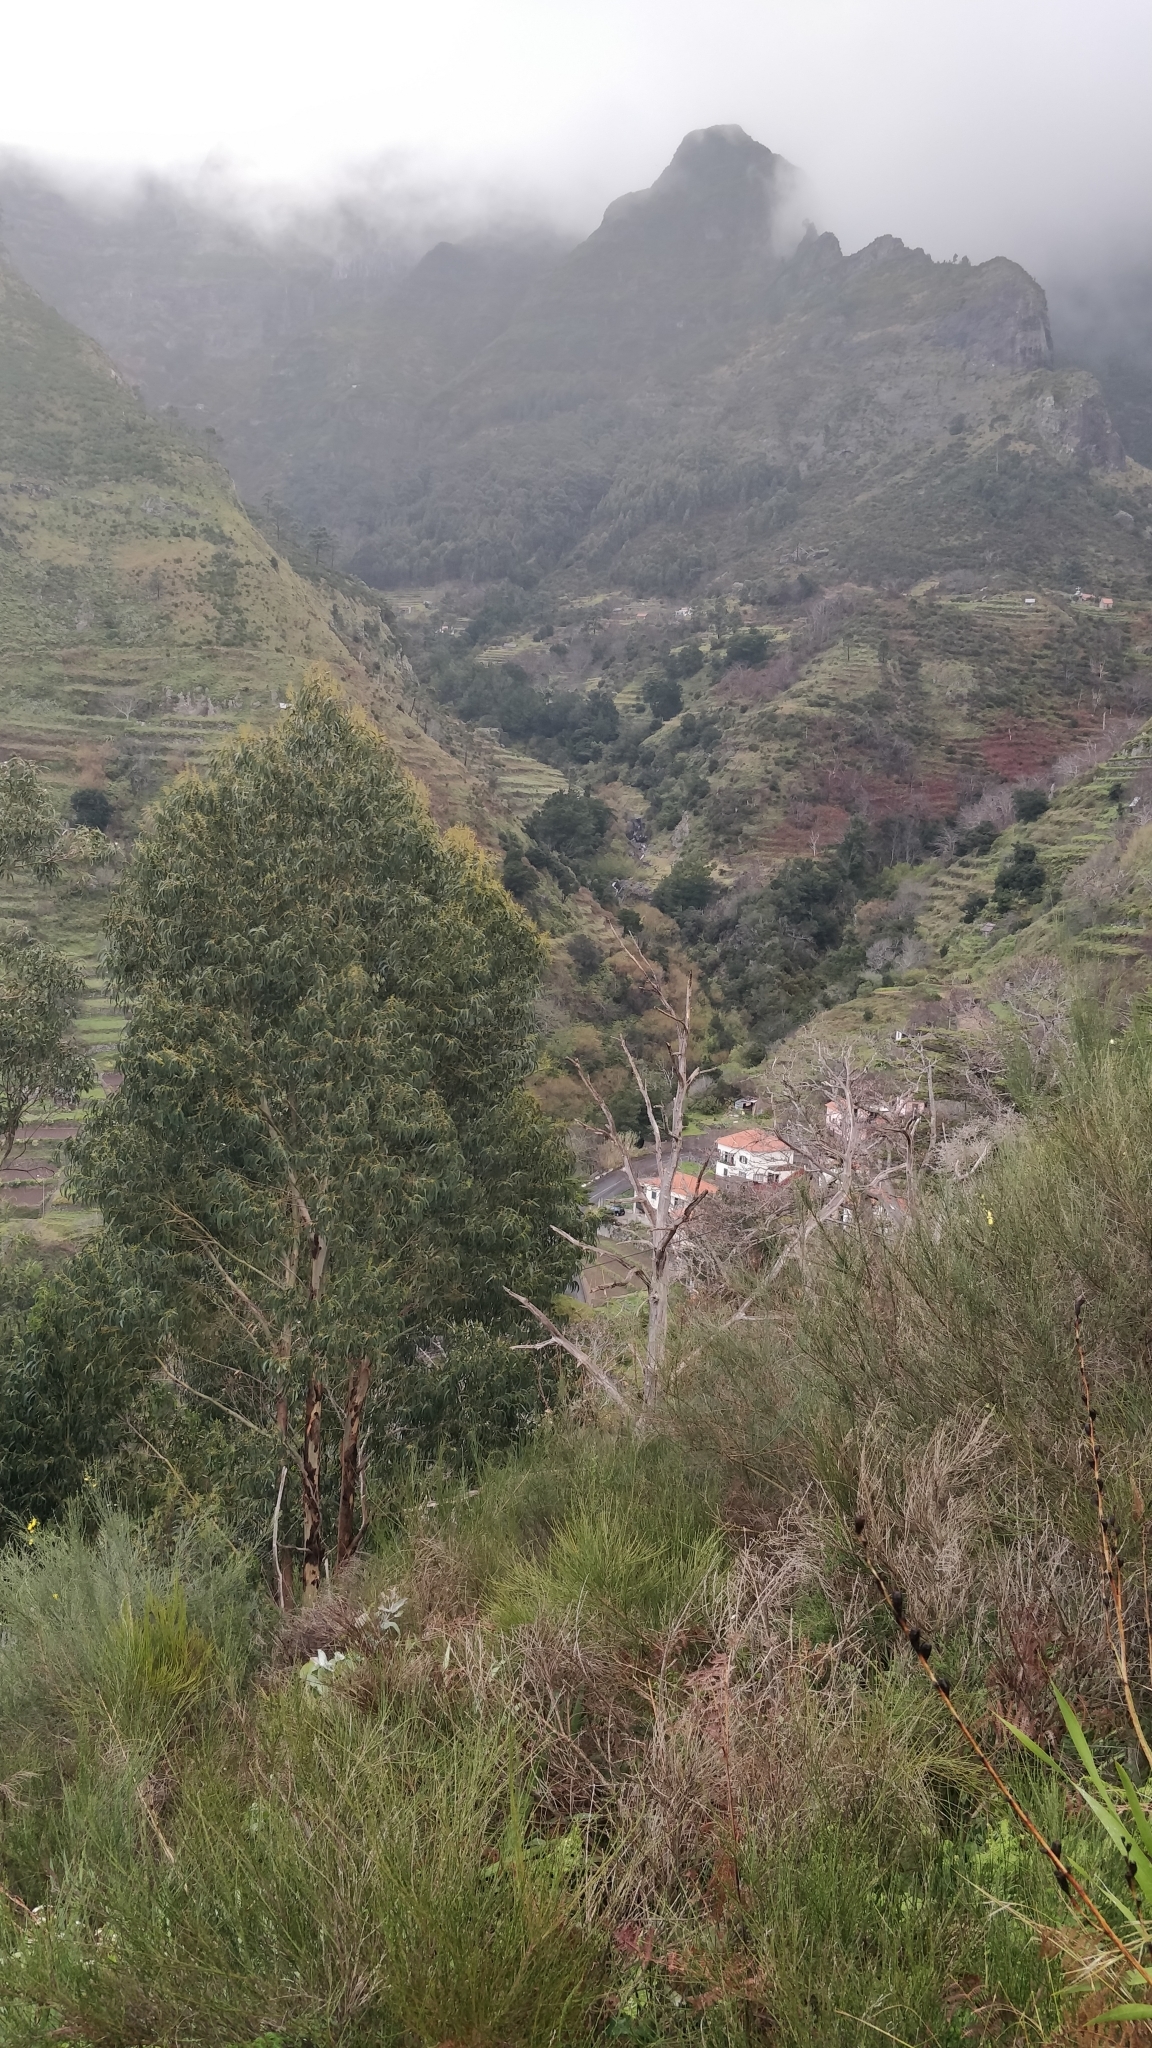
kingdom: Plantae
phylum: Tracheophyta
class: Magnoliopsida
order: Myrtales
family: Myrtaceae
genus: Eucalyptus
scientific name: Eucalyptus globulus
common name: Southern blue-gum
